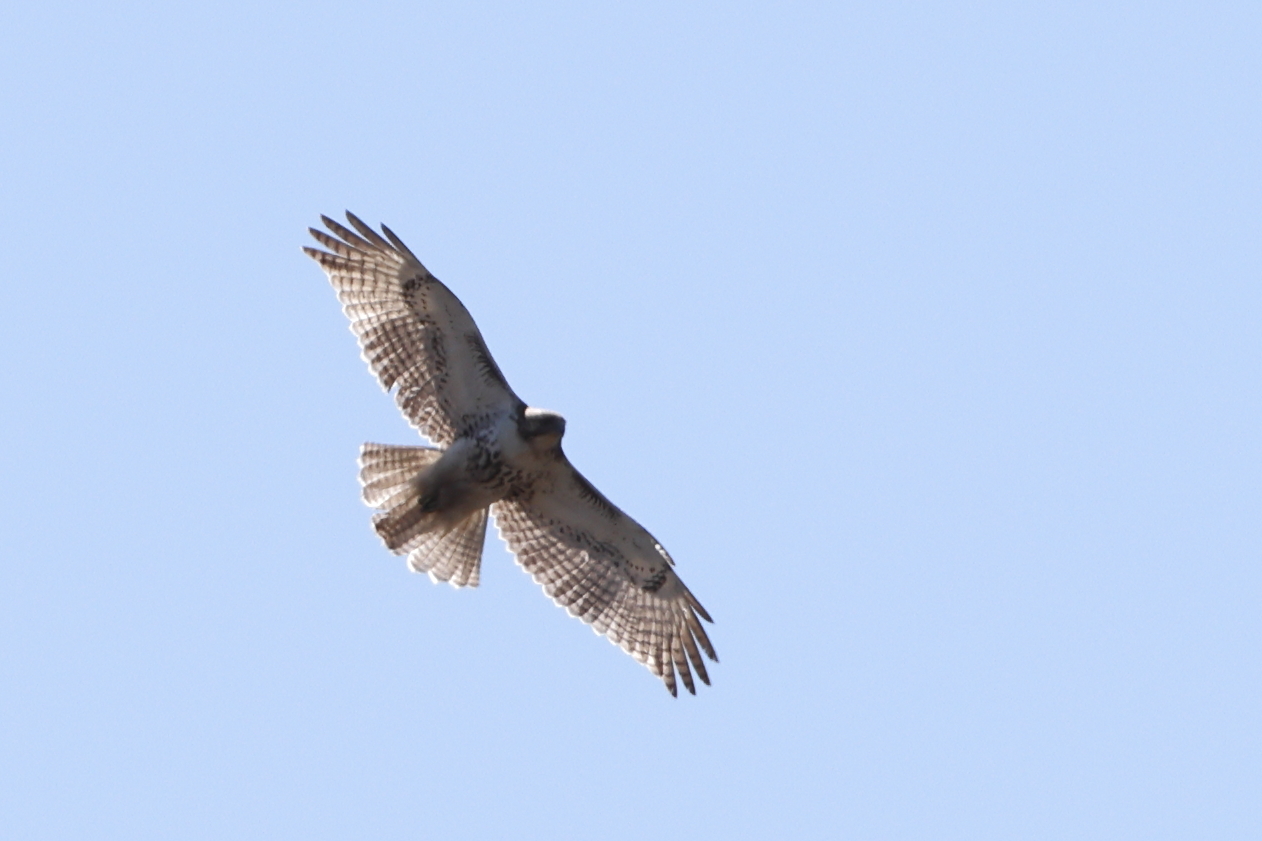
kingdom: Animalia
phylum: Chordata
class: Aves
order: Accipitriformes
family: Accipitridae
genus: Buteo
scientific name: Buteo jamaicensis
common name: Red-tailed hawk
